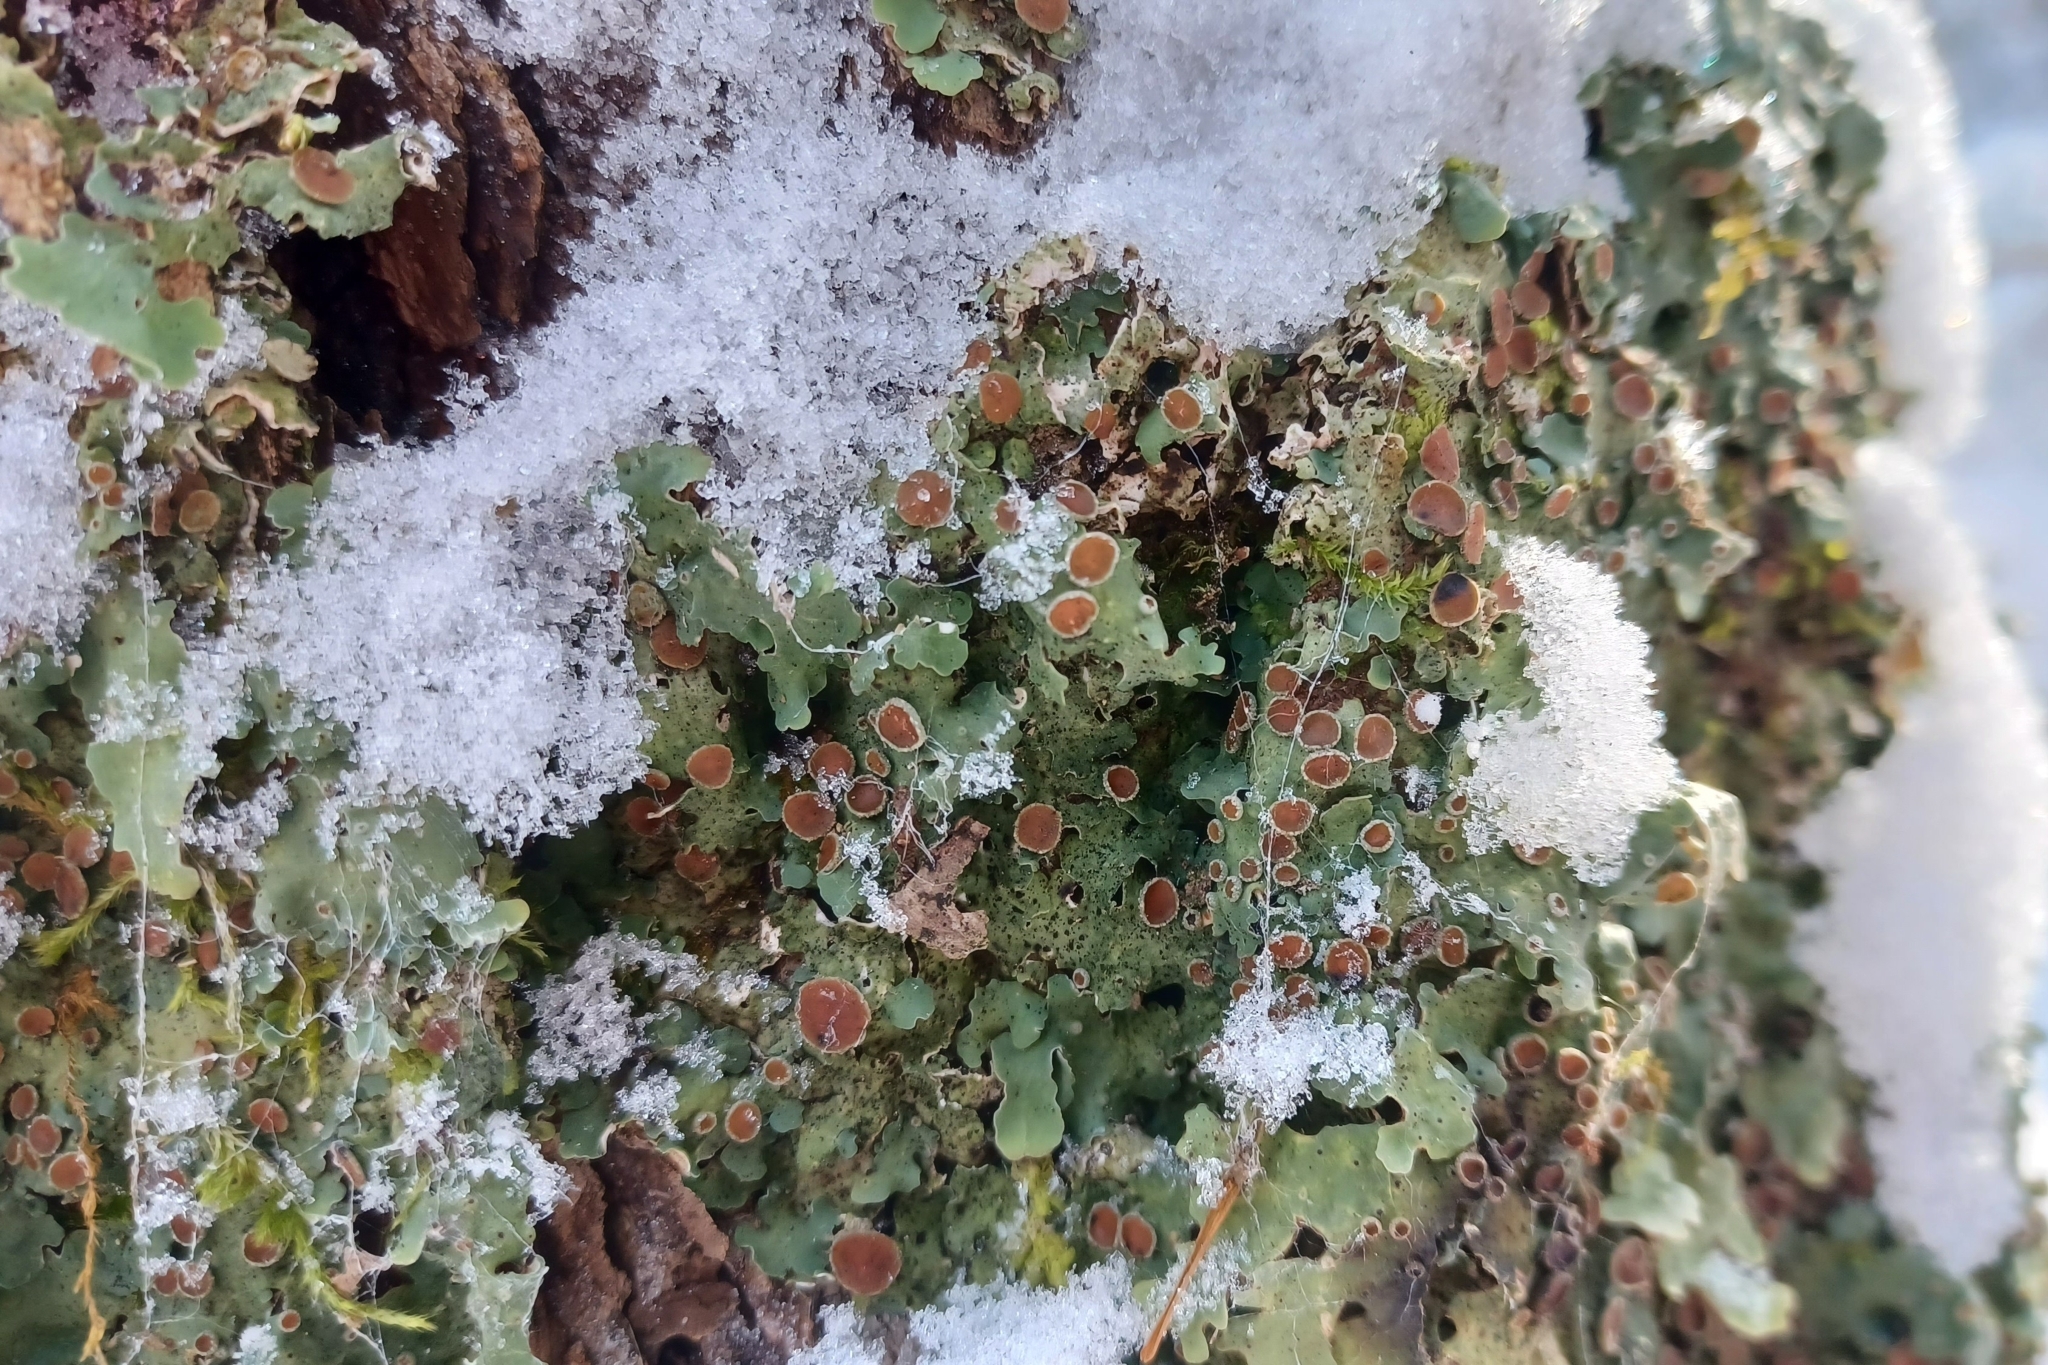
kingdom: Fungi
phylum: Ascomycota
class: Lecanoromycetes
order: Peltigerales
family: Lobariaceae
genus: Ricasolia
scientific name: Ricasolia quercizans
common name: Smooth lungwort
